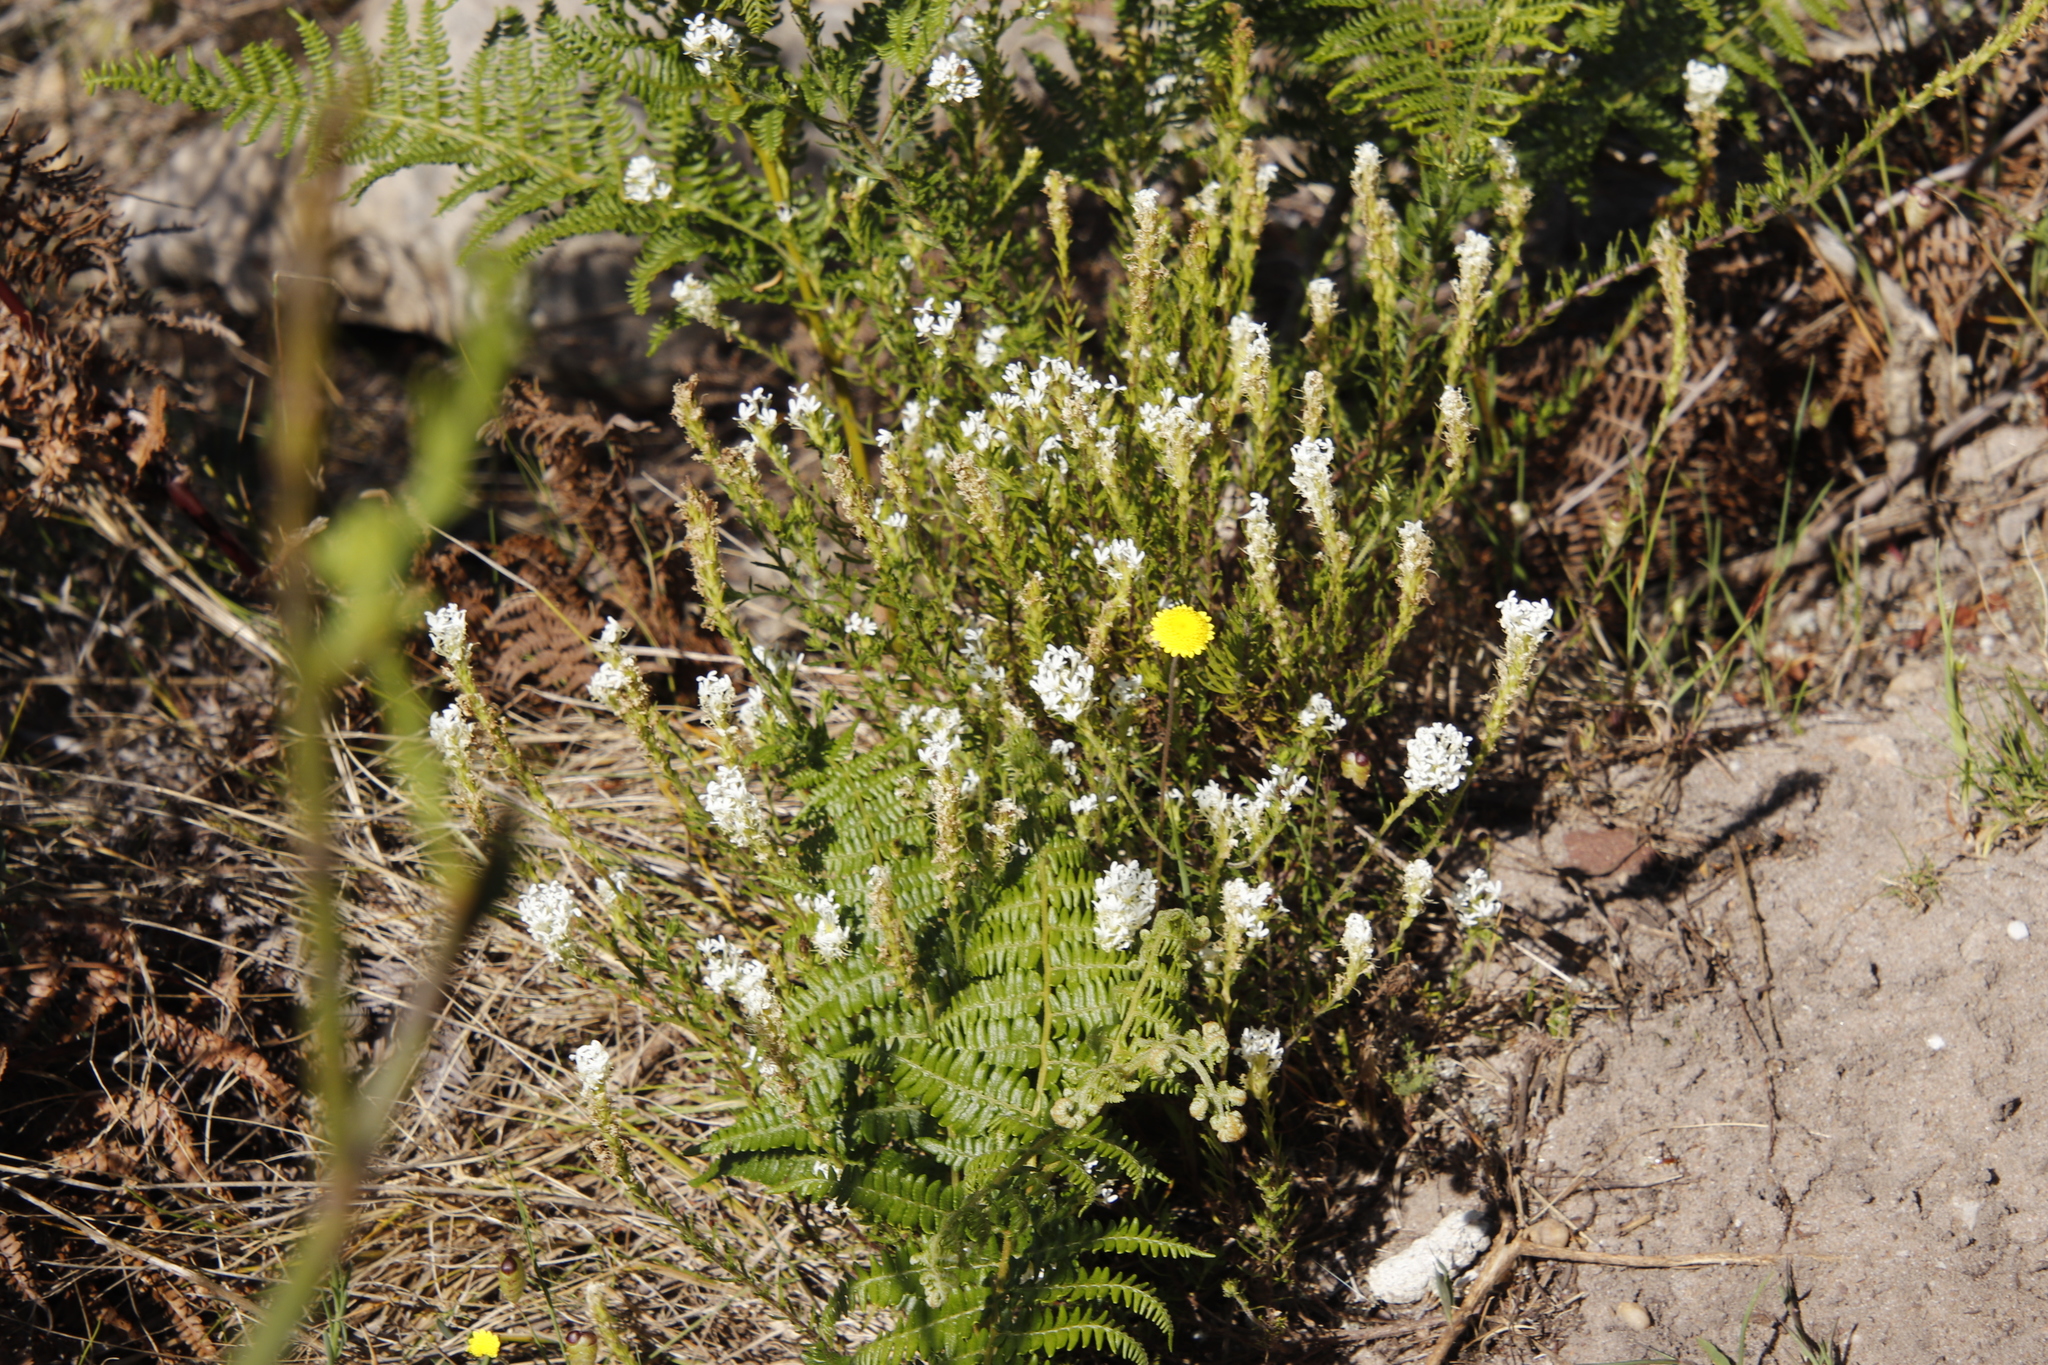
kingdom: Plantae
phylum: Tracheophyta
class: Magnoliopsida
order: Lamiales
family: Scrophulariaceae
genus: Dischisma
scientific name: Dischisma ciliatum
